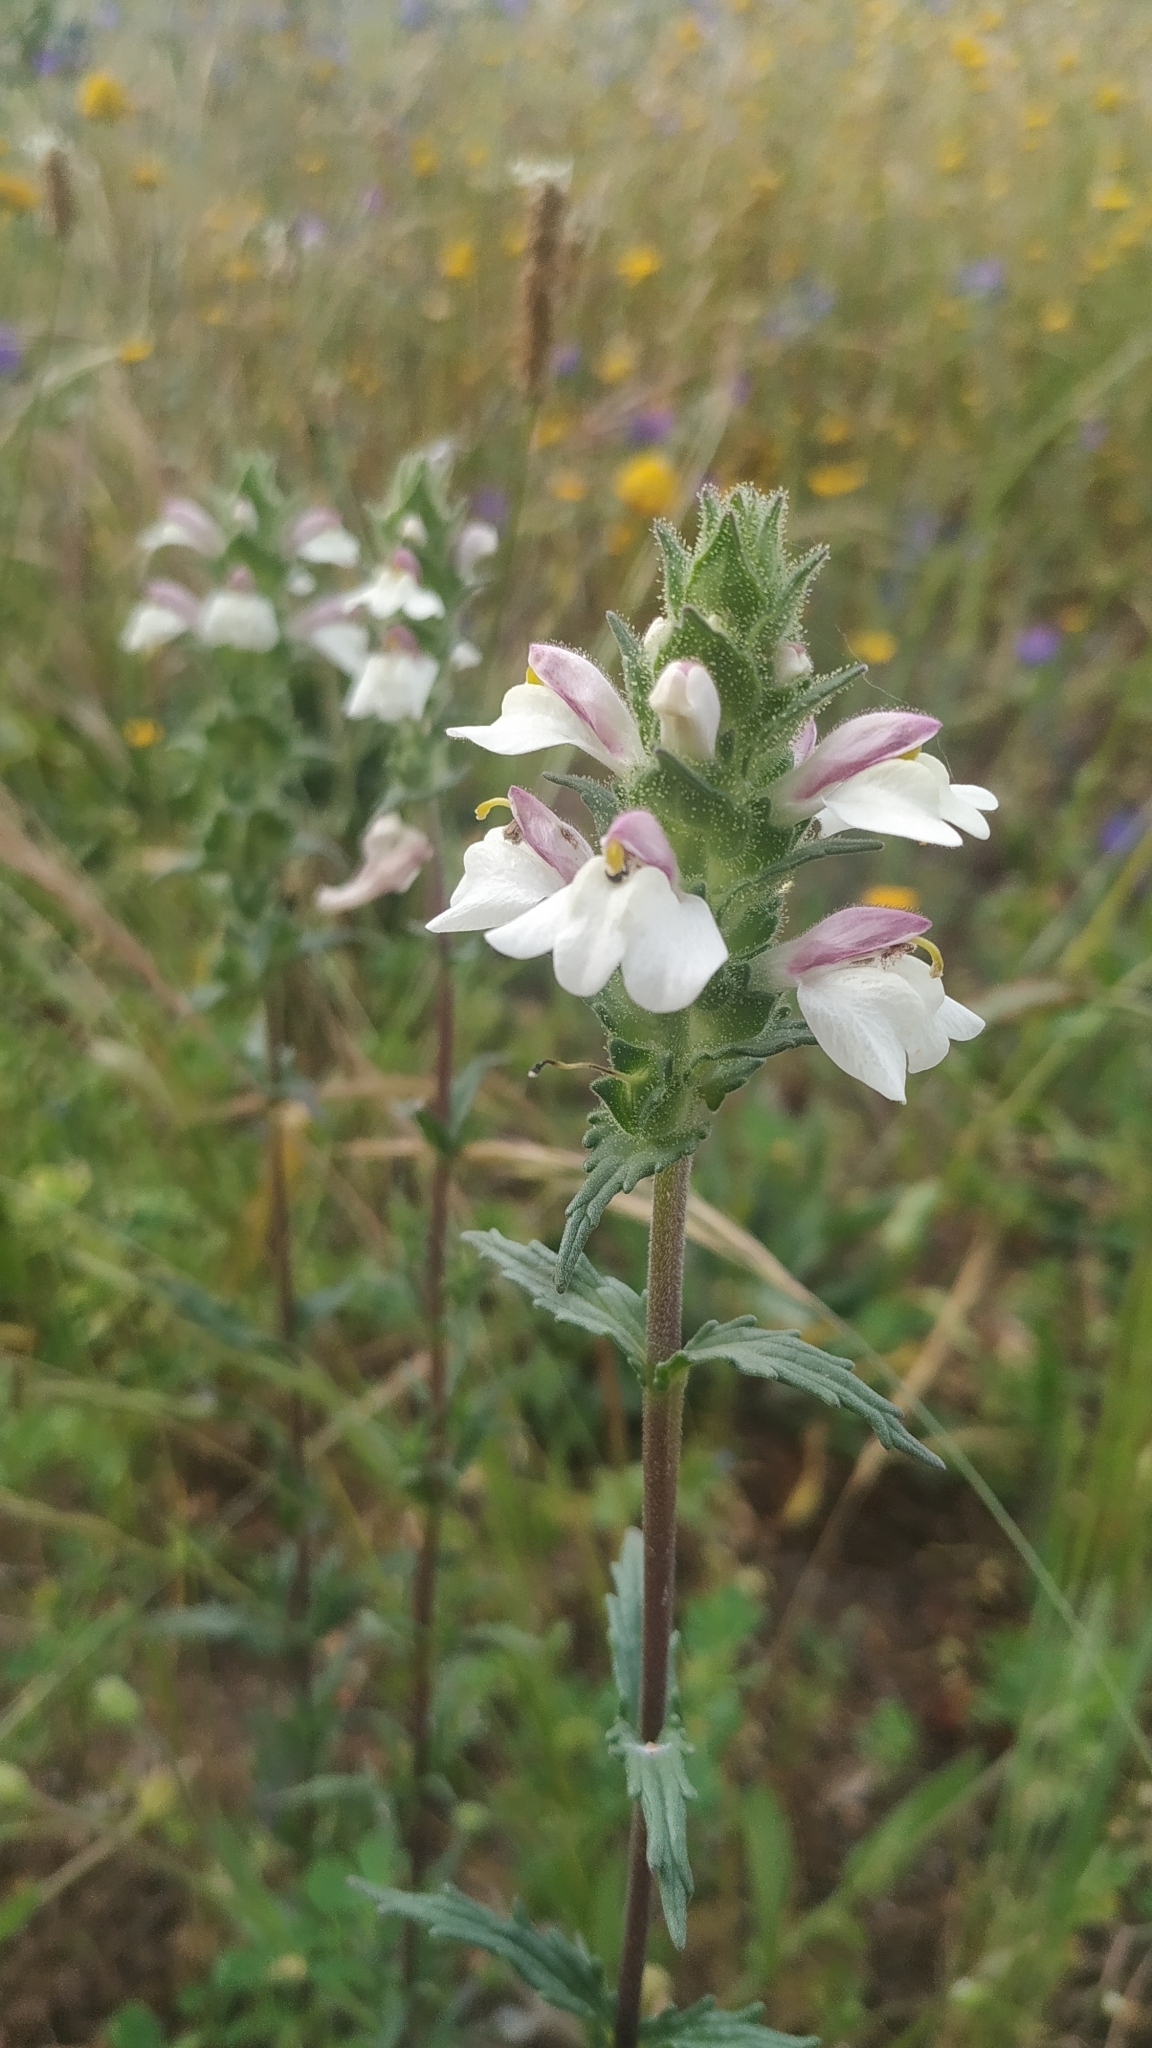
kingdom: Plantae
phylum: Tracheophyta
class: Magnoliopsida
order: Lamiales
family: Orobanchaceae
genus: Bellardia
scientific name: Bellardia trixago
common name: Mediterranean lineseed
